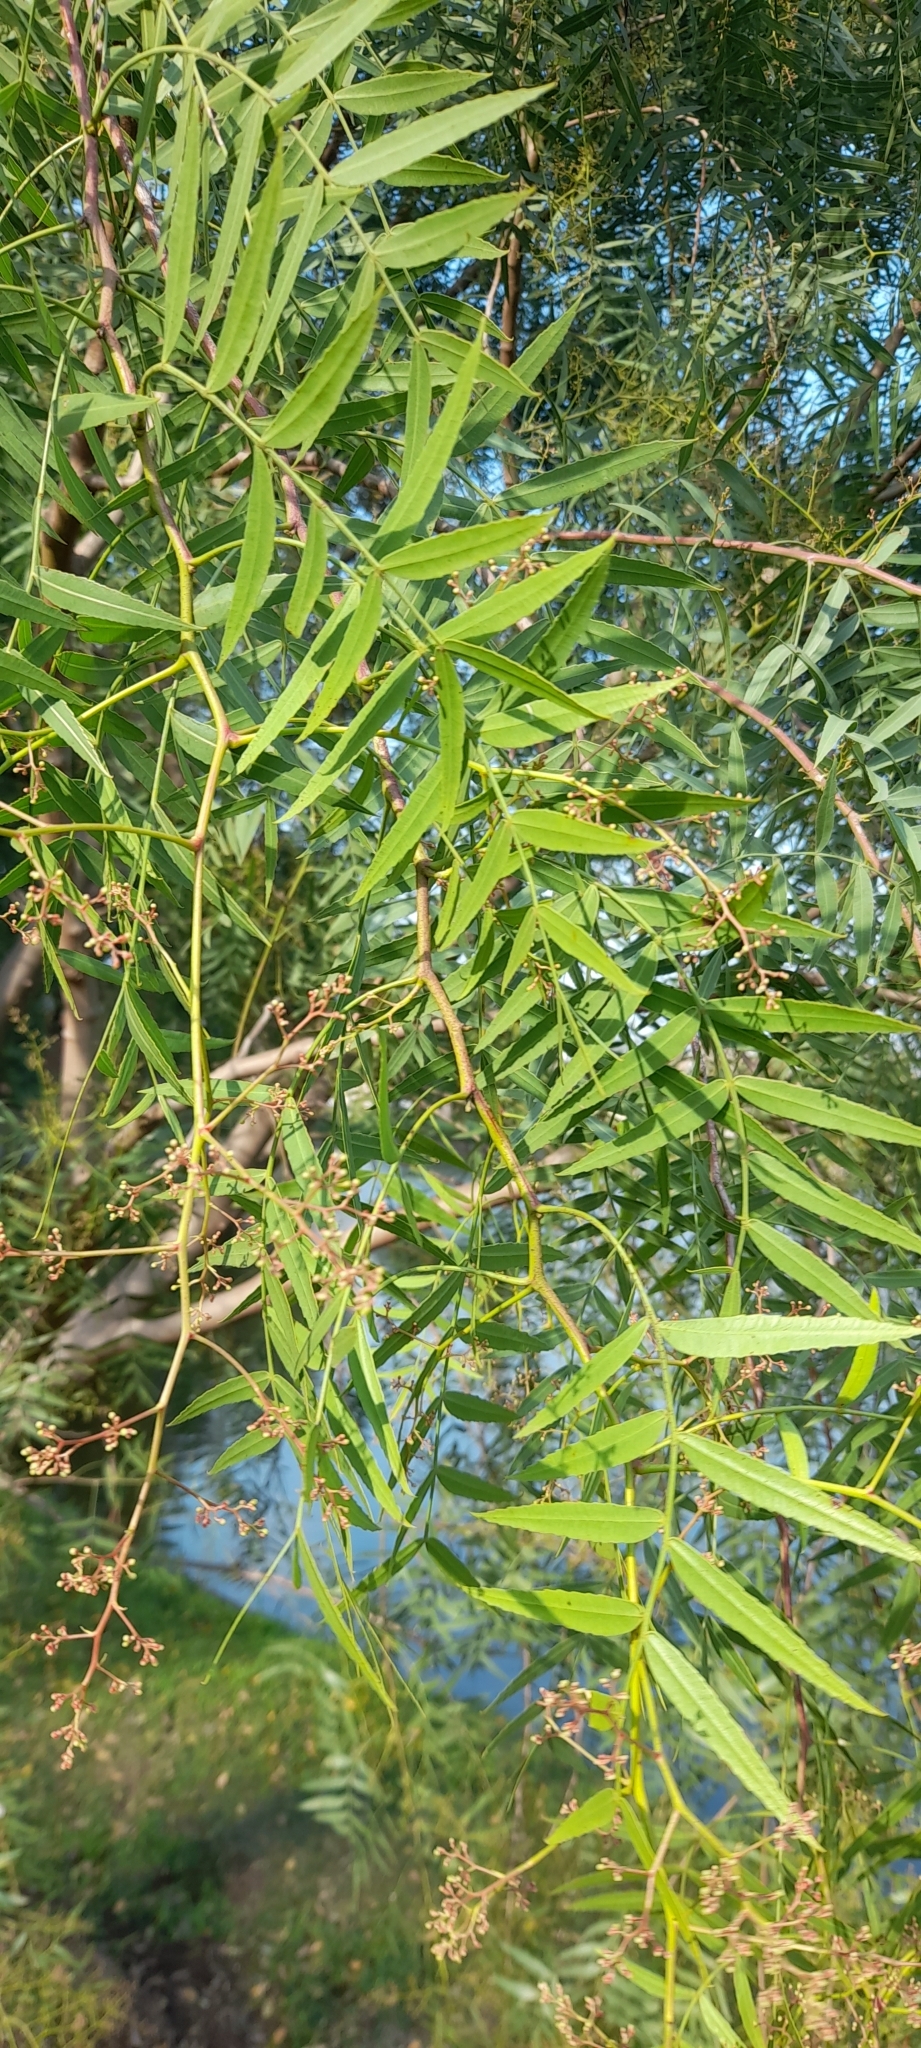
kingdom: Plantae
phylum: Tracheophyta
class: Magnoliopsida
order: Sapindales
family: Anacardiaceae
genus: Schinus
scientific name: Schinus molle
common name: Peruvian peppertree
